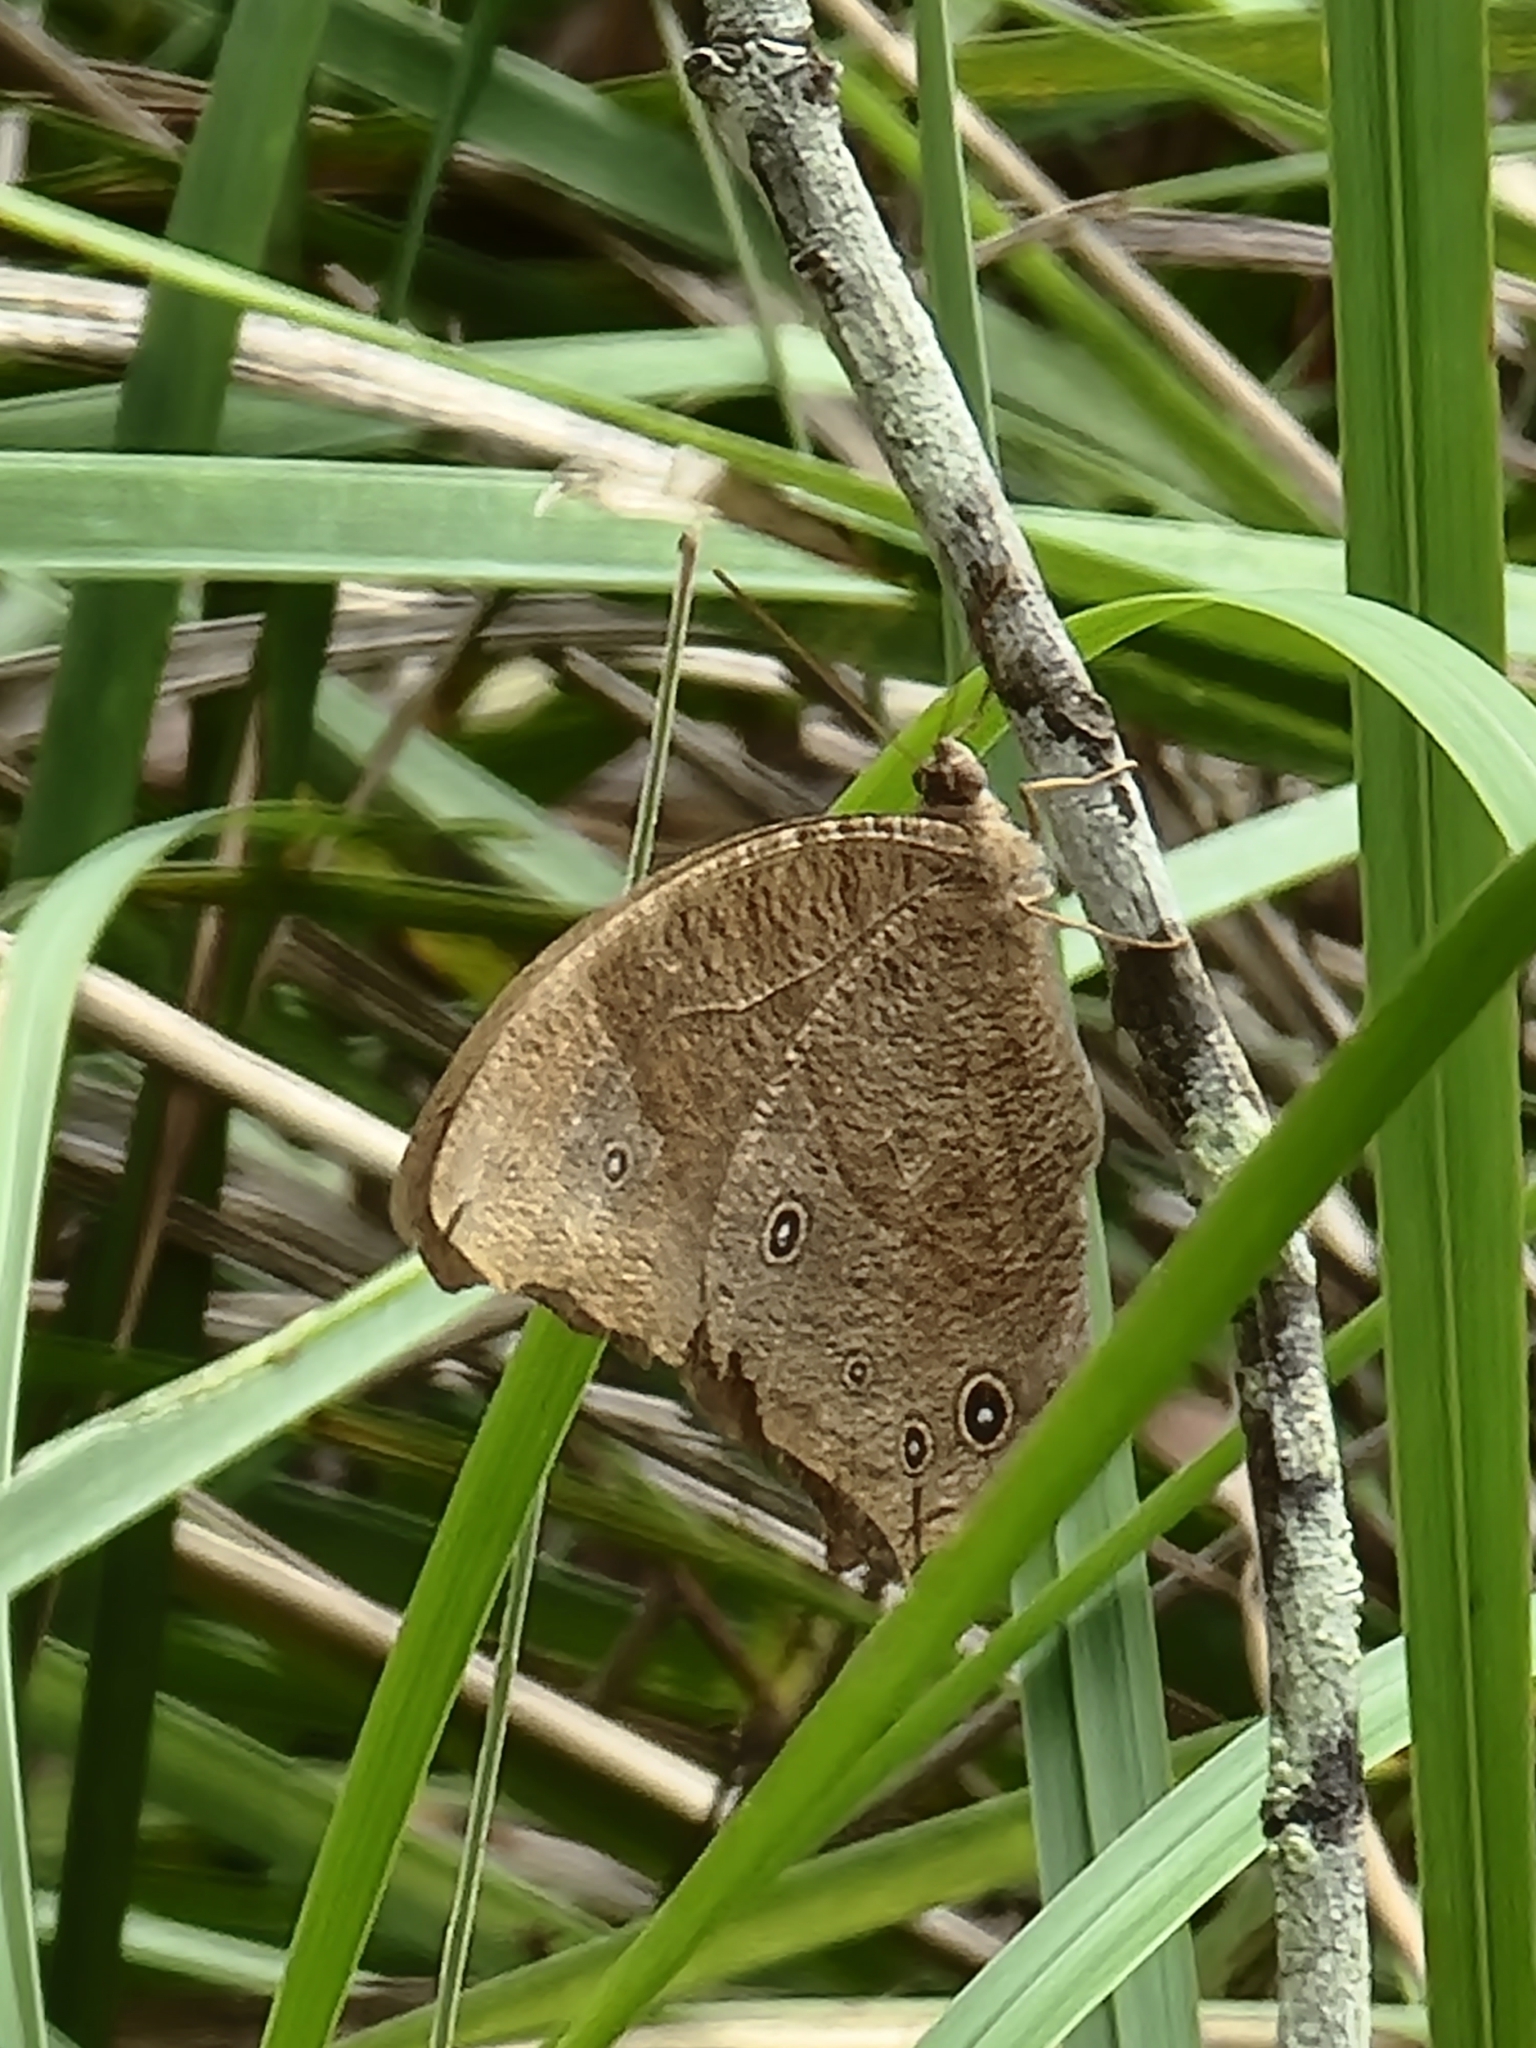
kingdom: Animalia
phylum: Arthropoda
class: Insecta
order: Lepidoptera
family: Nymphalidae
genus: Melanitis
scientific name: Melanitis leda
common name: Twilight brown
